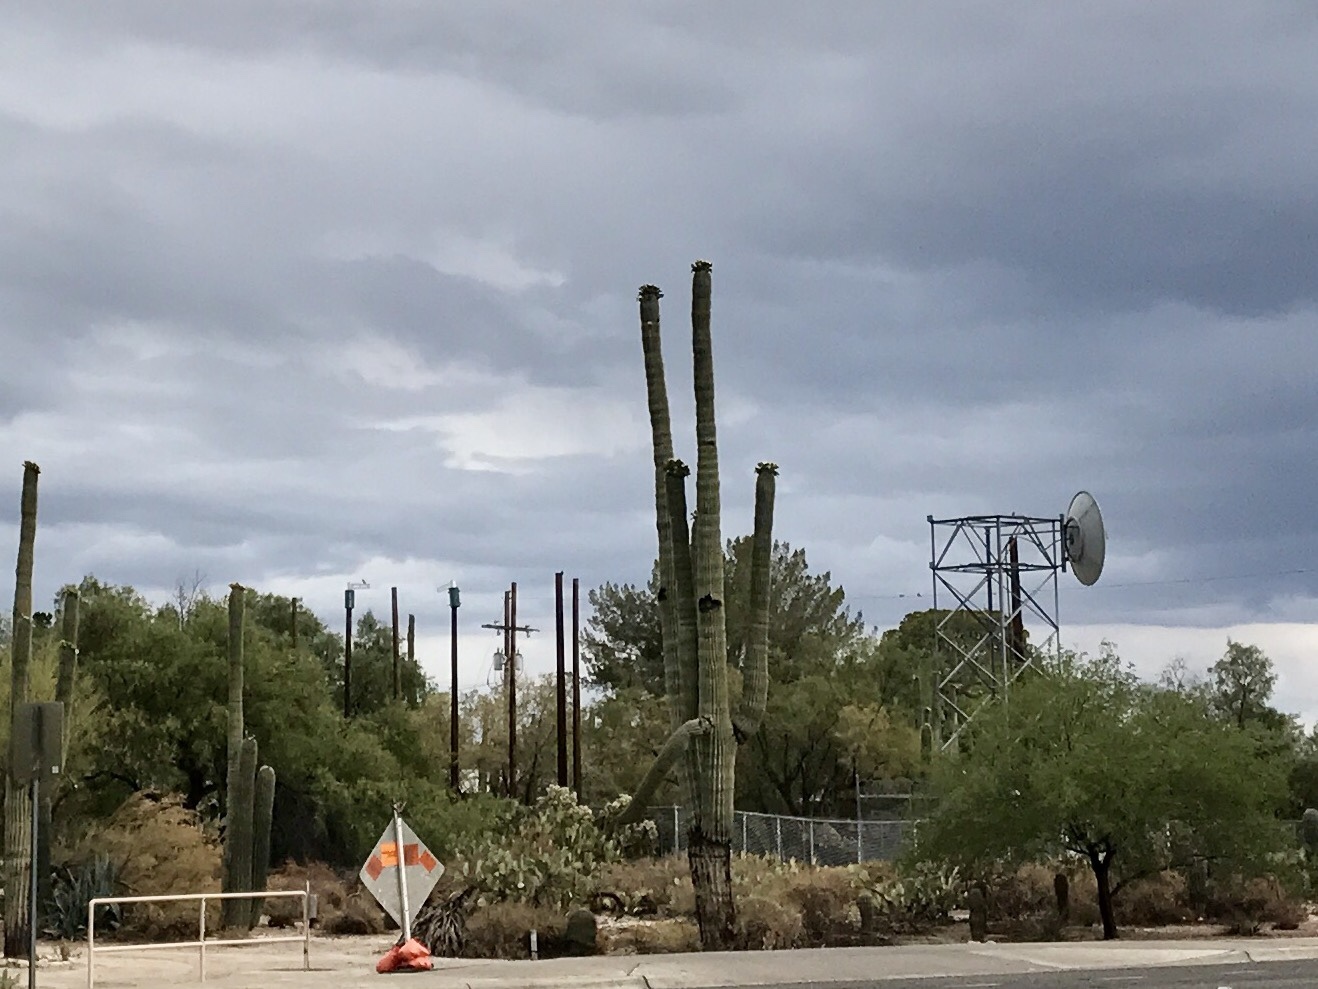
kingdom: Plantae
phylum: Tracheophyta
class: Magnoliopsida
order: Caryophyllales
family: Cactaceae
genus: Carnegiea
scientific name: Carnegiea gigantea
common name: Saguaro
